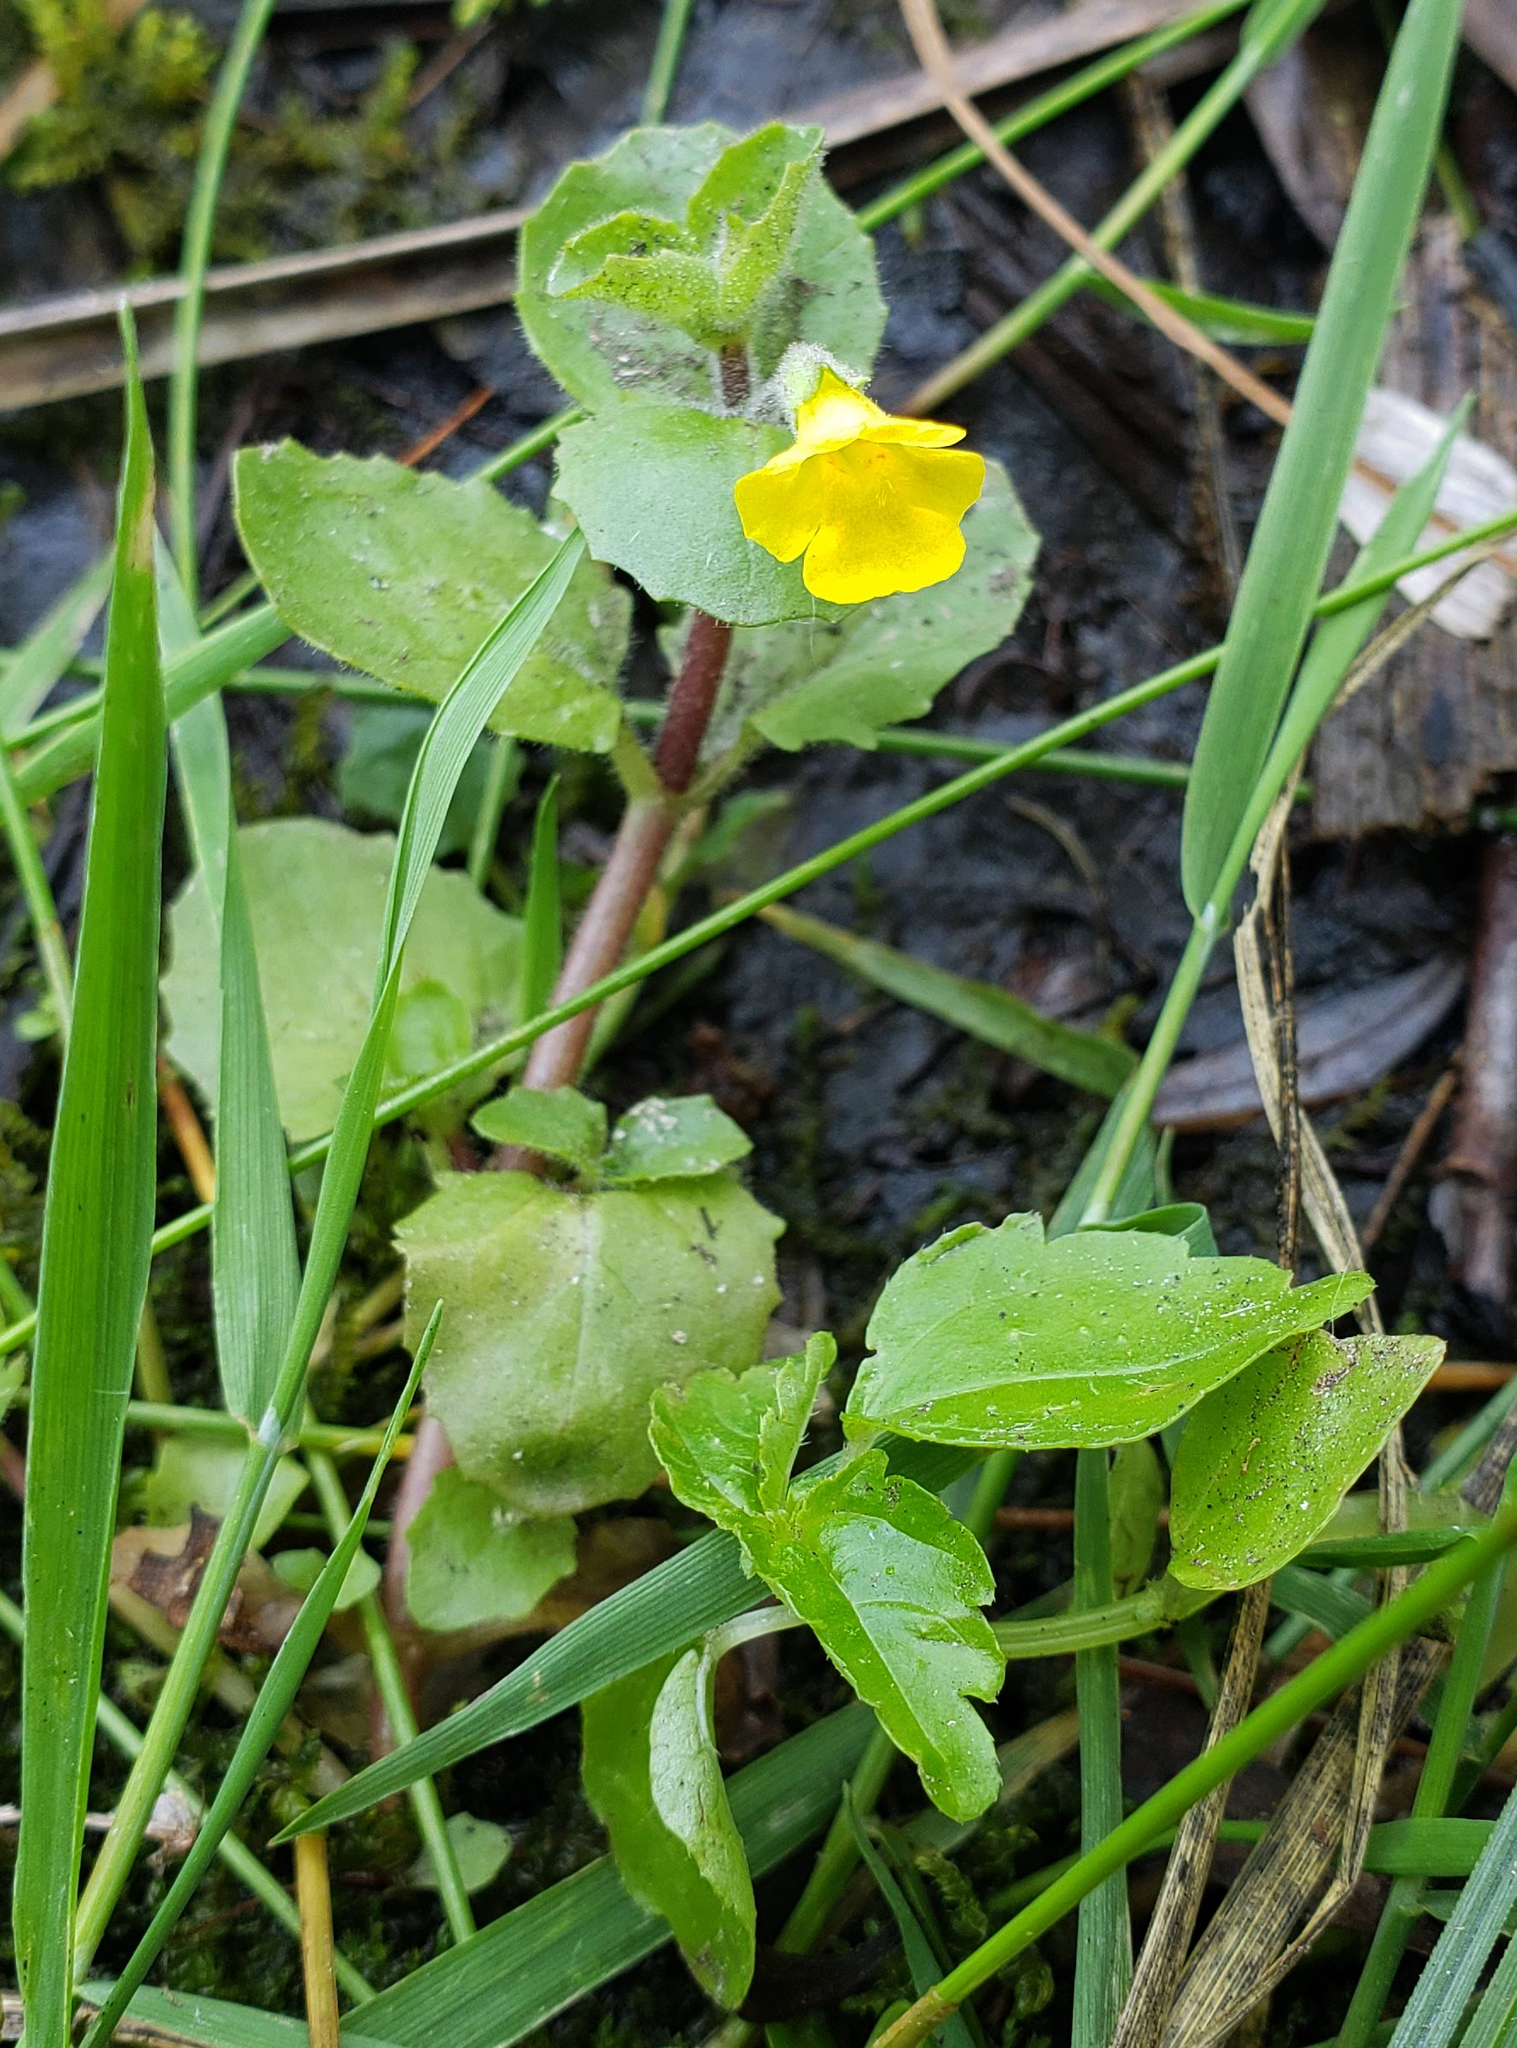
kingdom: Plantae
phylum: Tracheophyta
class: Magnoliopsida
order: Lamiales
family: Phrymaceae
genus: Erythranthe
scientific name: Erythranthe geyeri
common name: Geyer's monkeyflower
